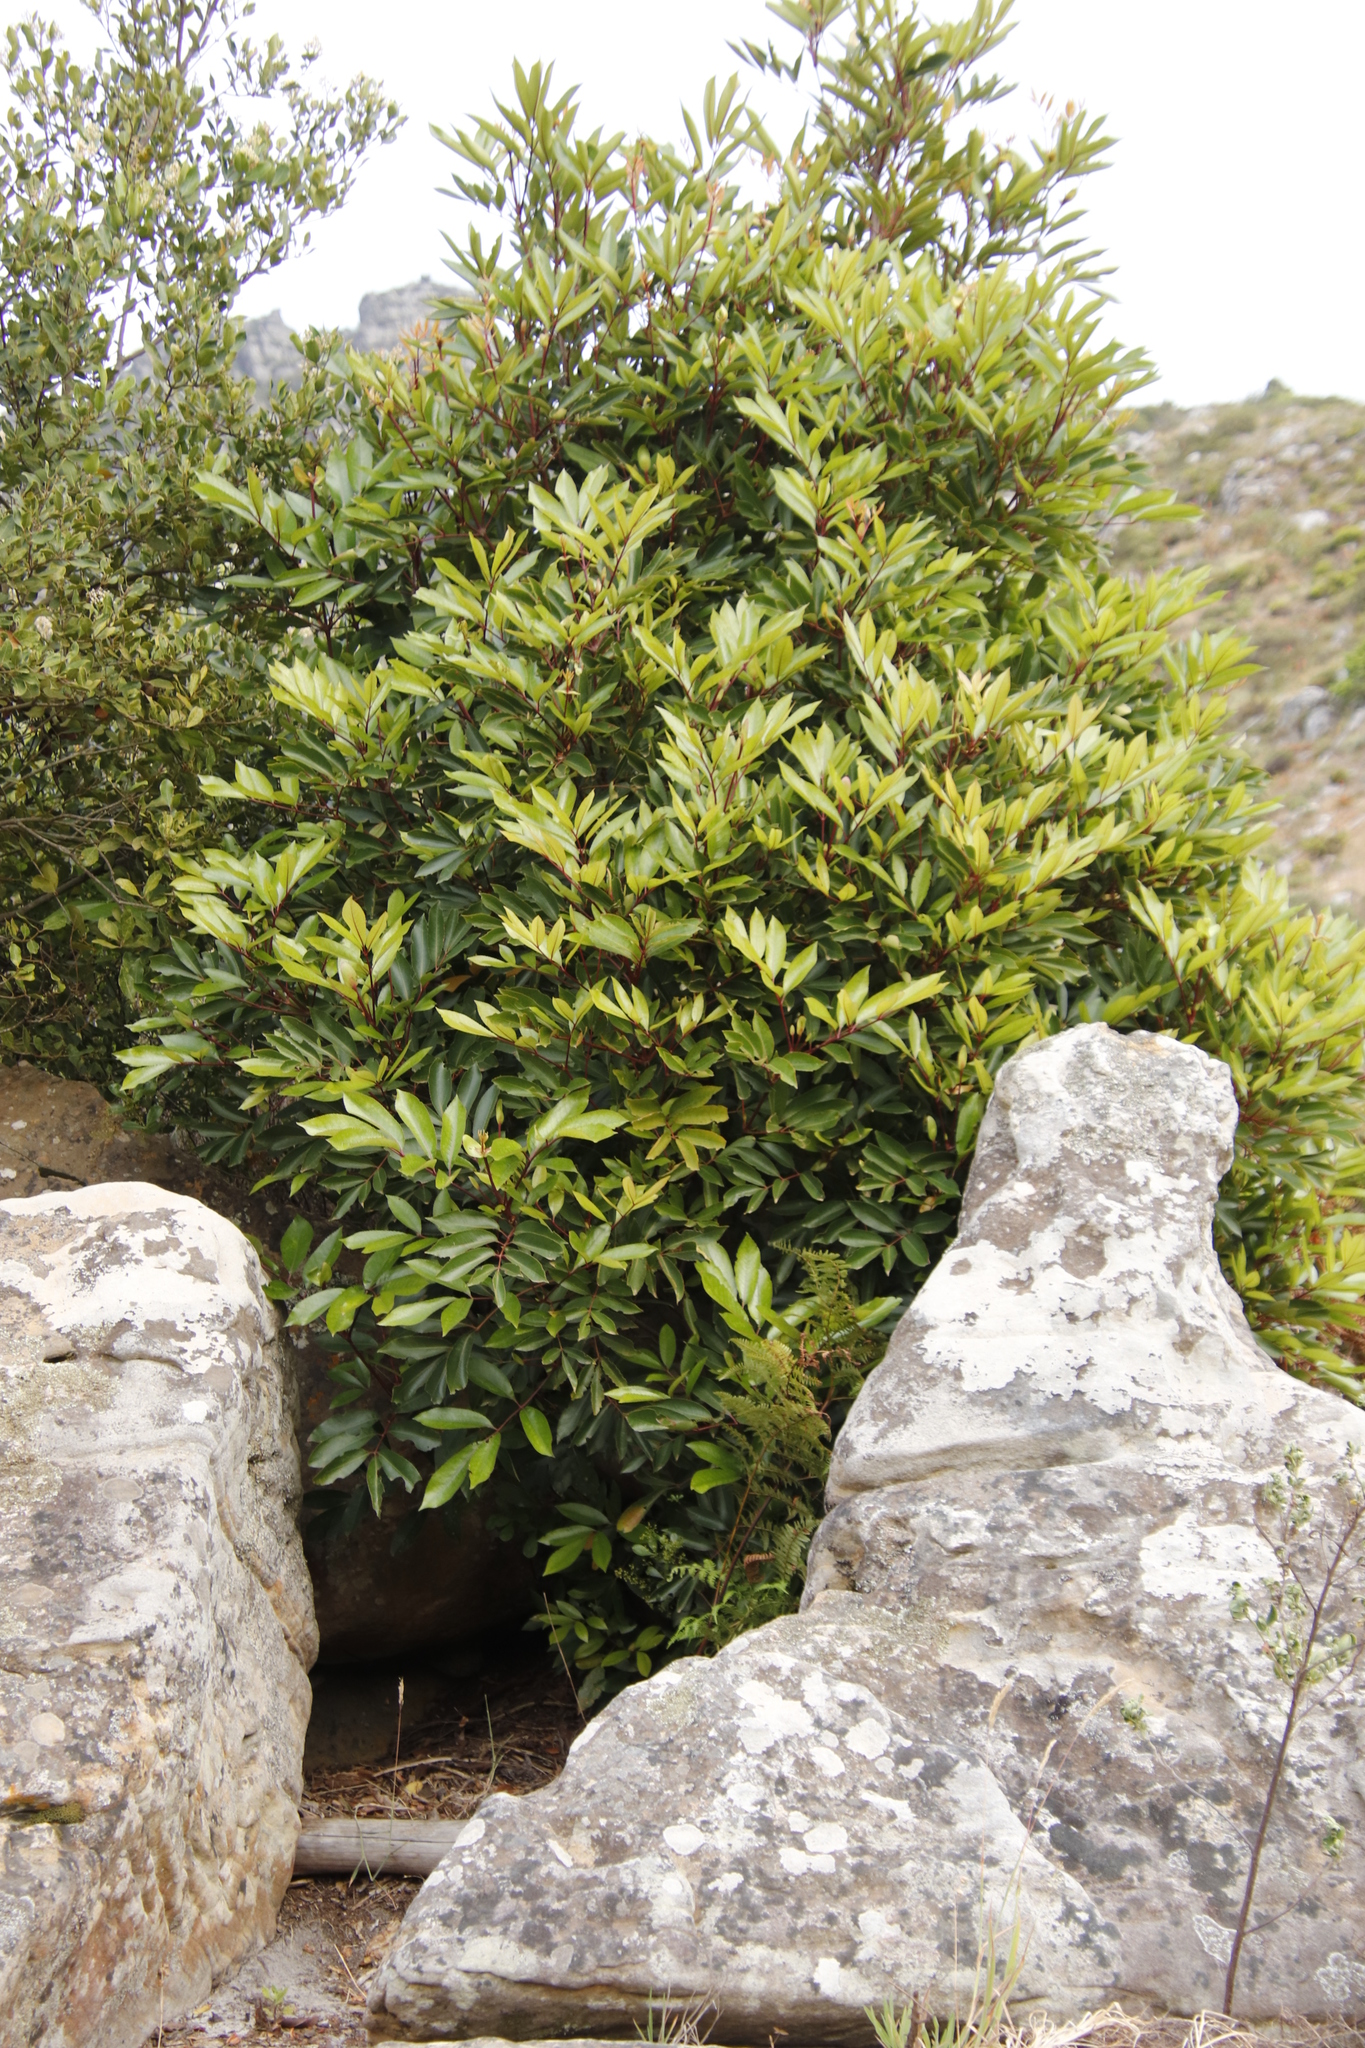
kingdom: Plantae
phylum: Tracheophyta
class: Magnoliopsida
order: Oxalidales
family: Cunoniaceae
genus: Cunonia
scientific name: Cunonia capensis
